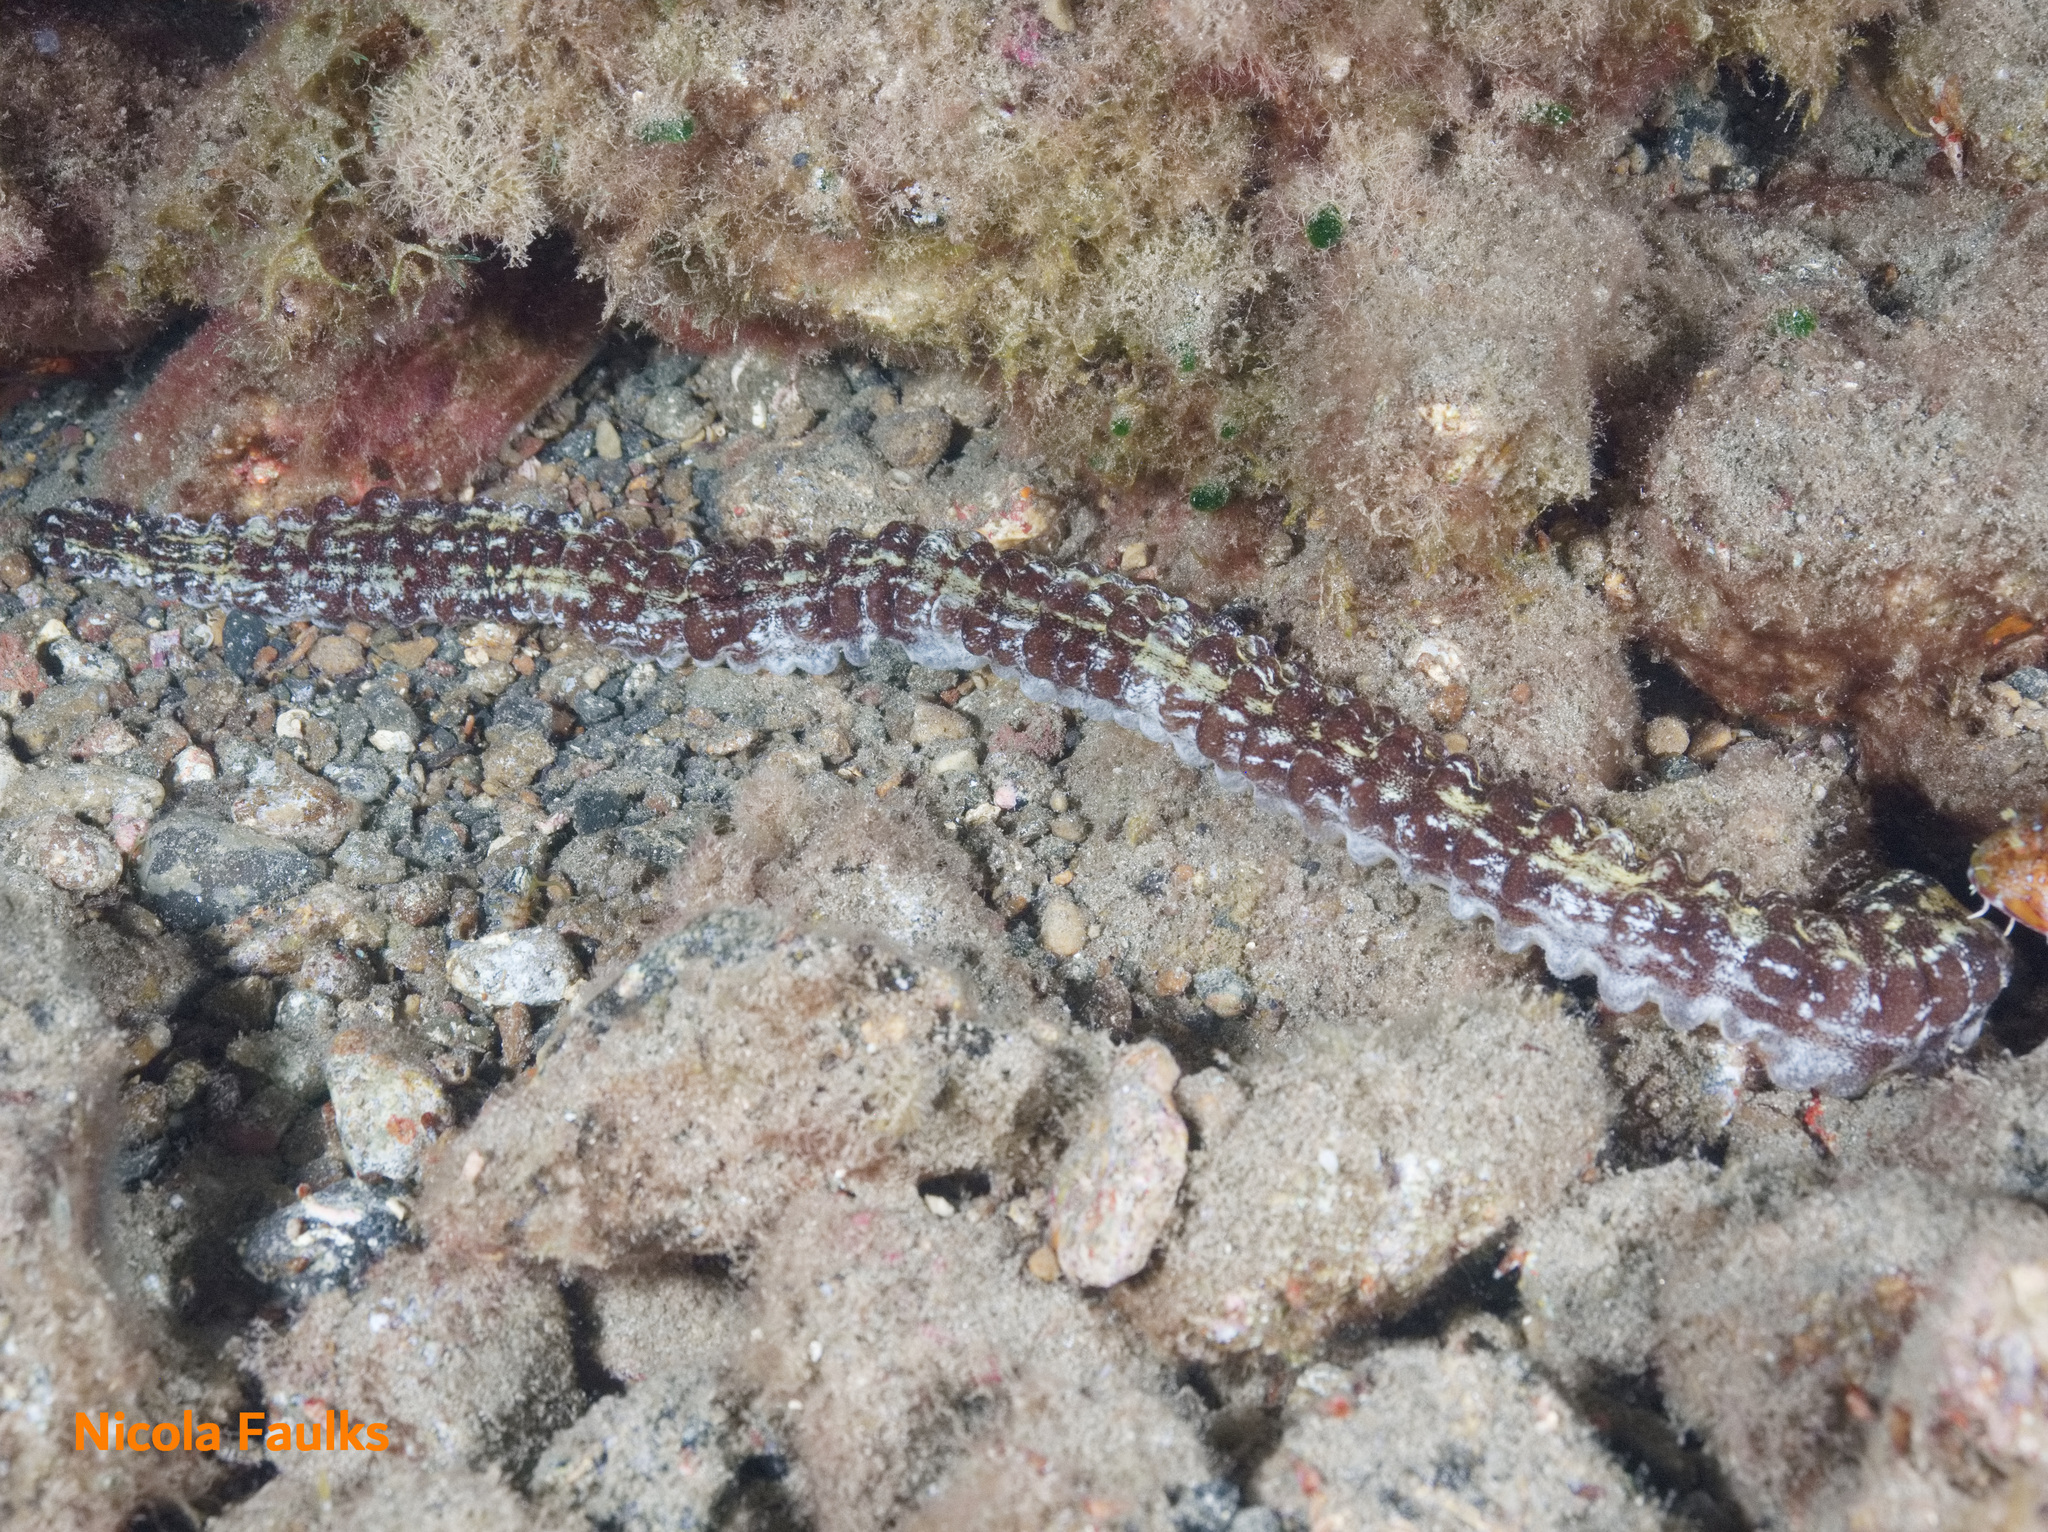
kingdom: Animalia
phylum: Echinodermata
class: Holothuroidea
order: Apodida
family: Synaptidae
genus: Euapta
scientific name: Euapta lappa
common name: Sticky-skinned sea cucumber
